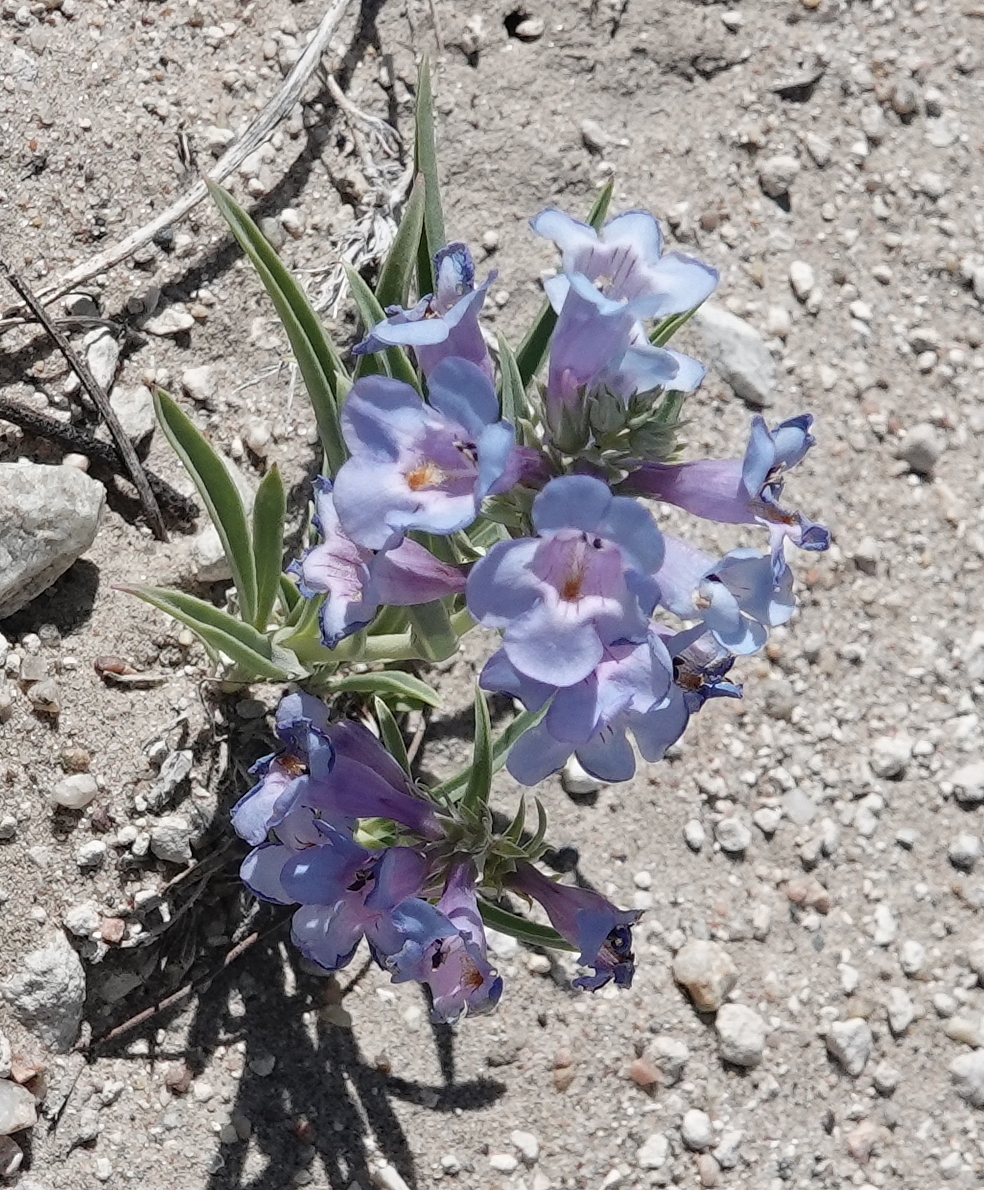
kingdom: Plantae
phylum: Tracheophyta
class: Magnoliopsida
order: Lamiales
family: Plantaginaceae
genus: Penstemon
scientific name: Penstemon angustifolius
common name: Narrow beardtongue
